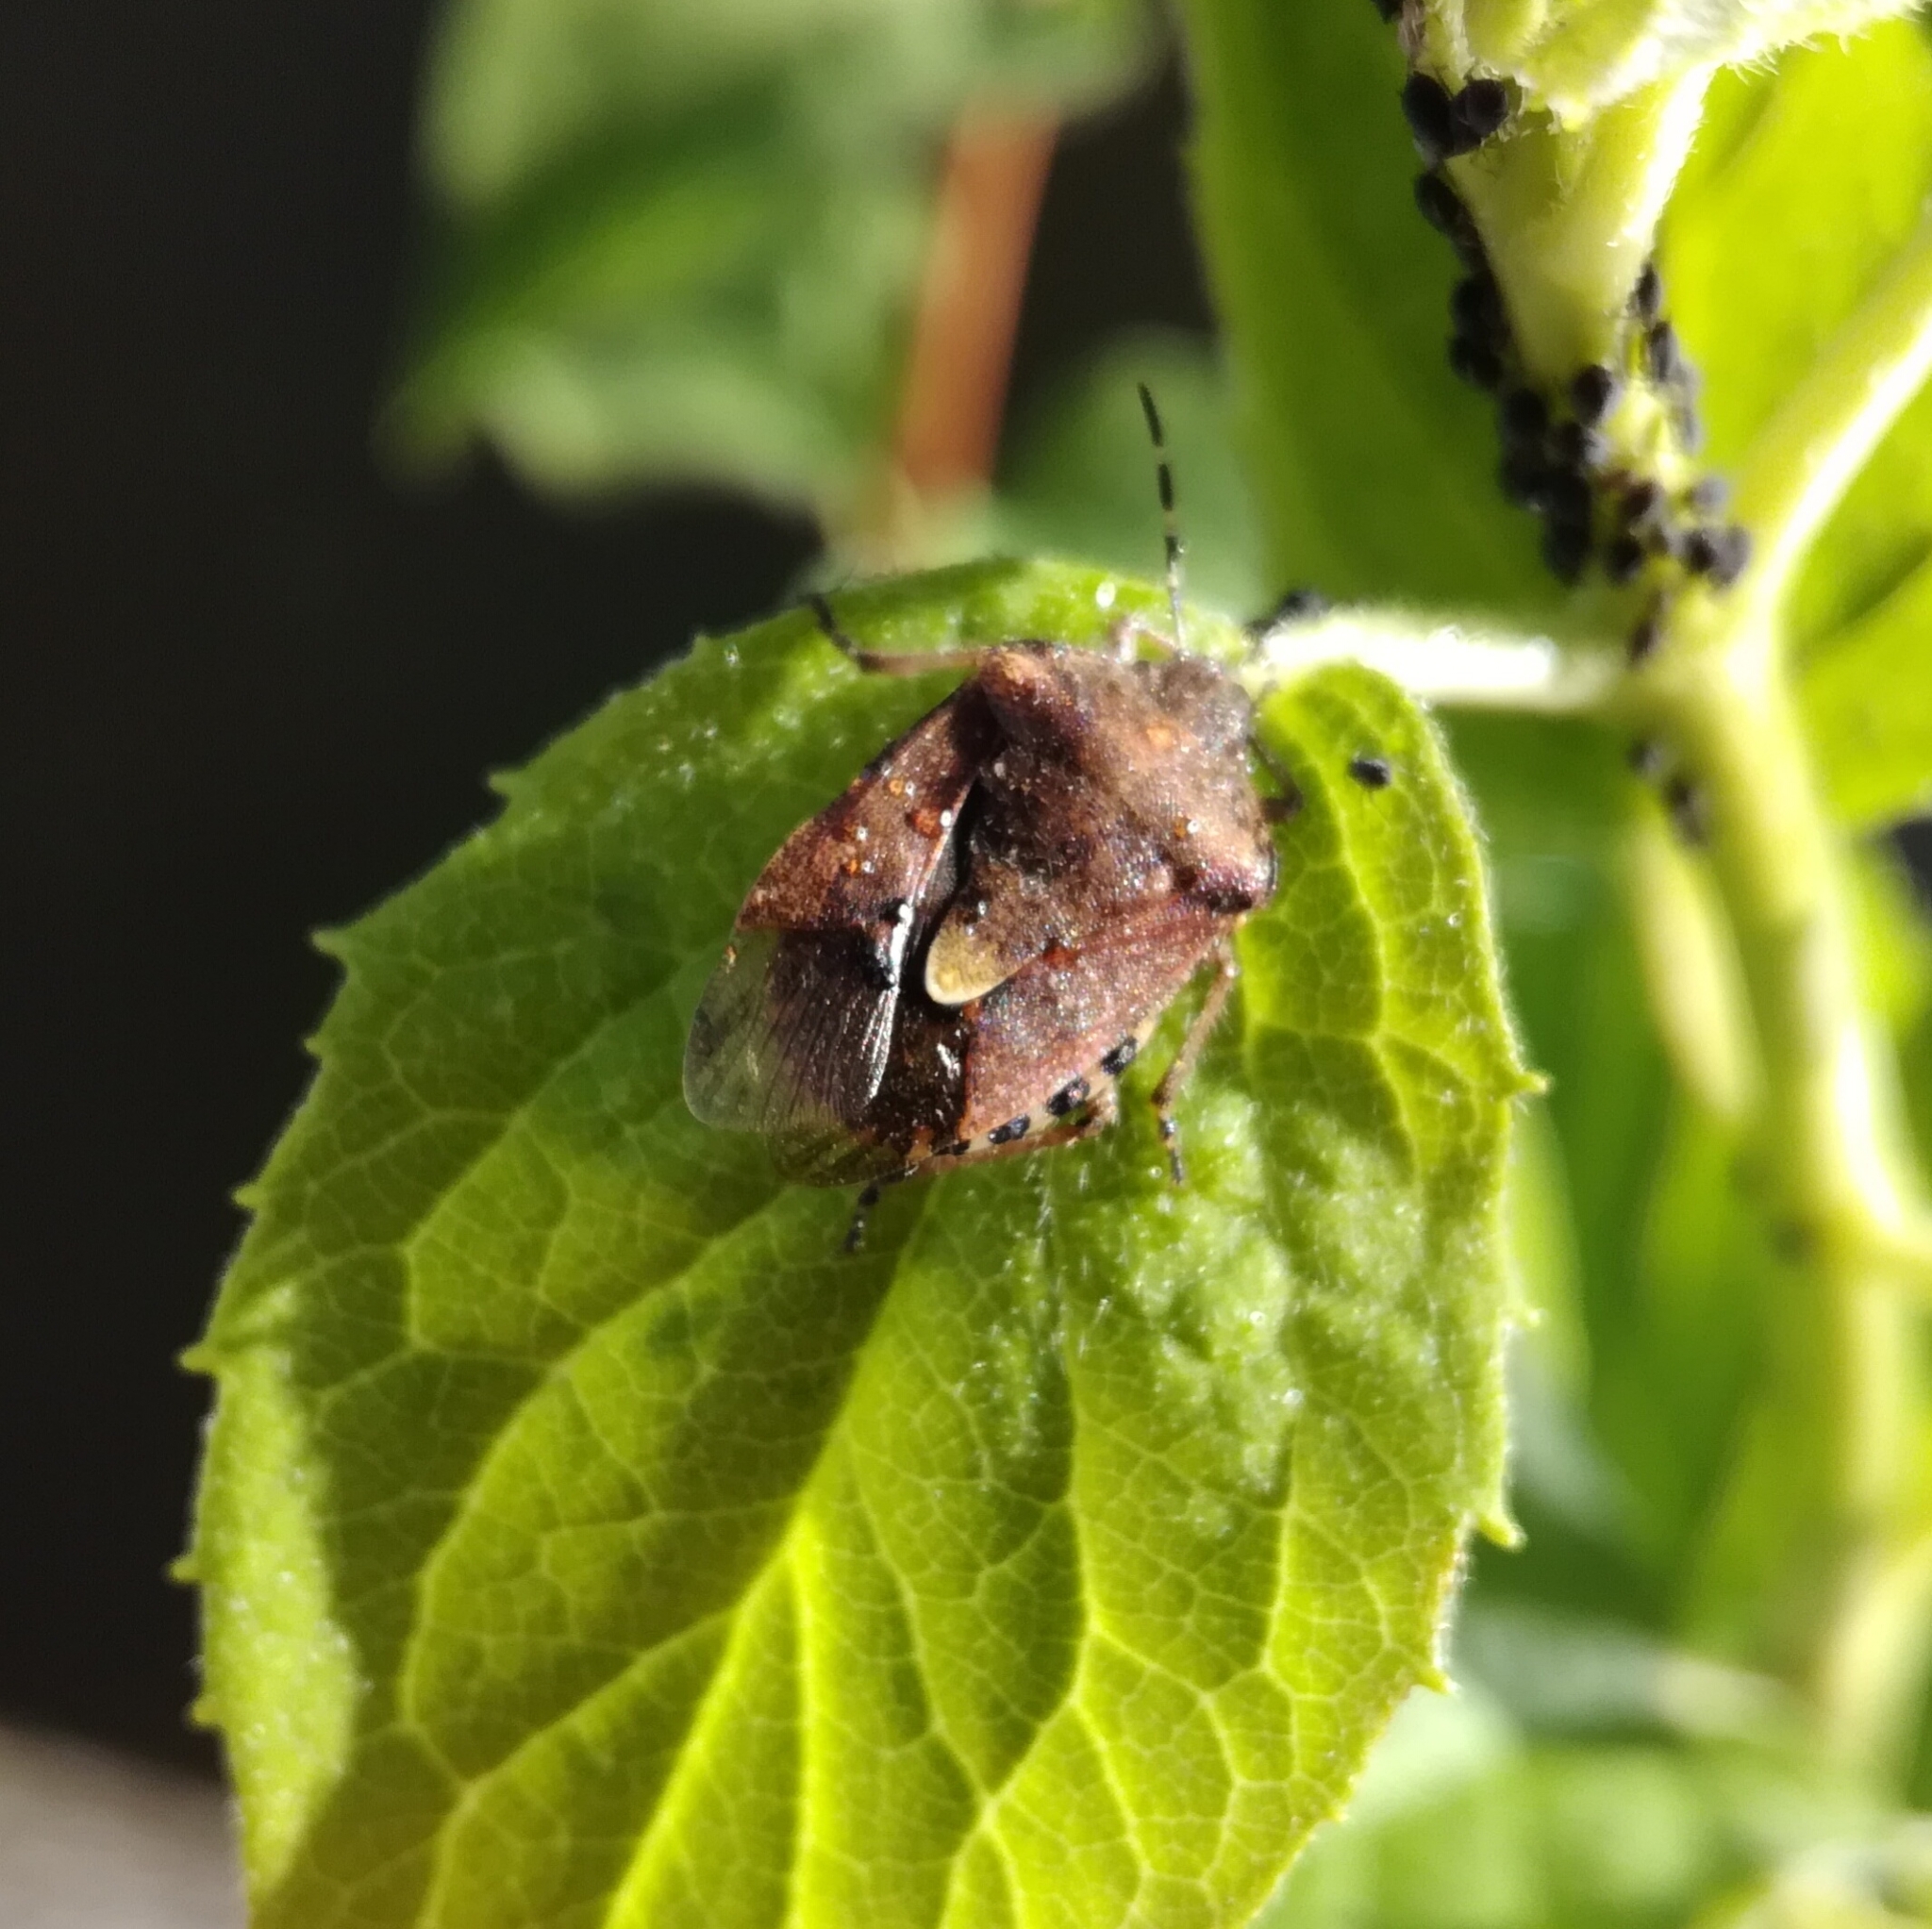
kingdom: Animalia
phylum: Arthropoda
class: Insecta
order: Hemiptera
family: Pentatomidae
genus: Dolycoris
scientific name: Dolycoris baccarum
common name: Sloe bug
